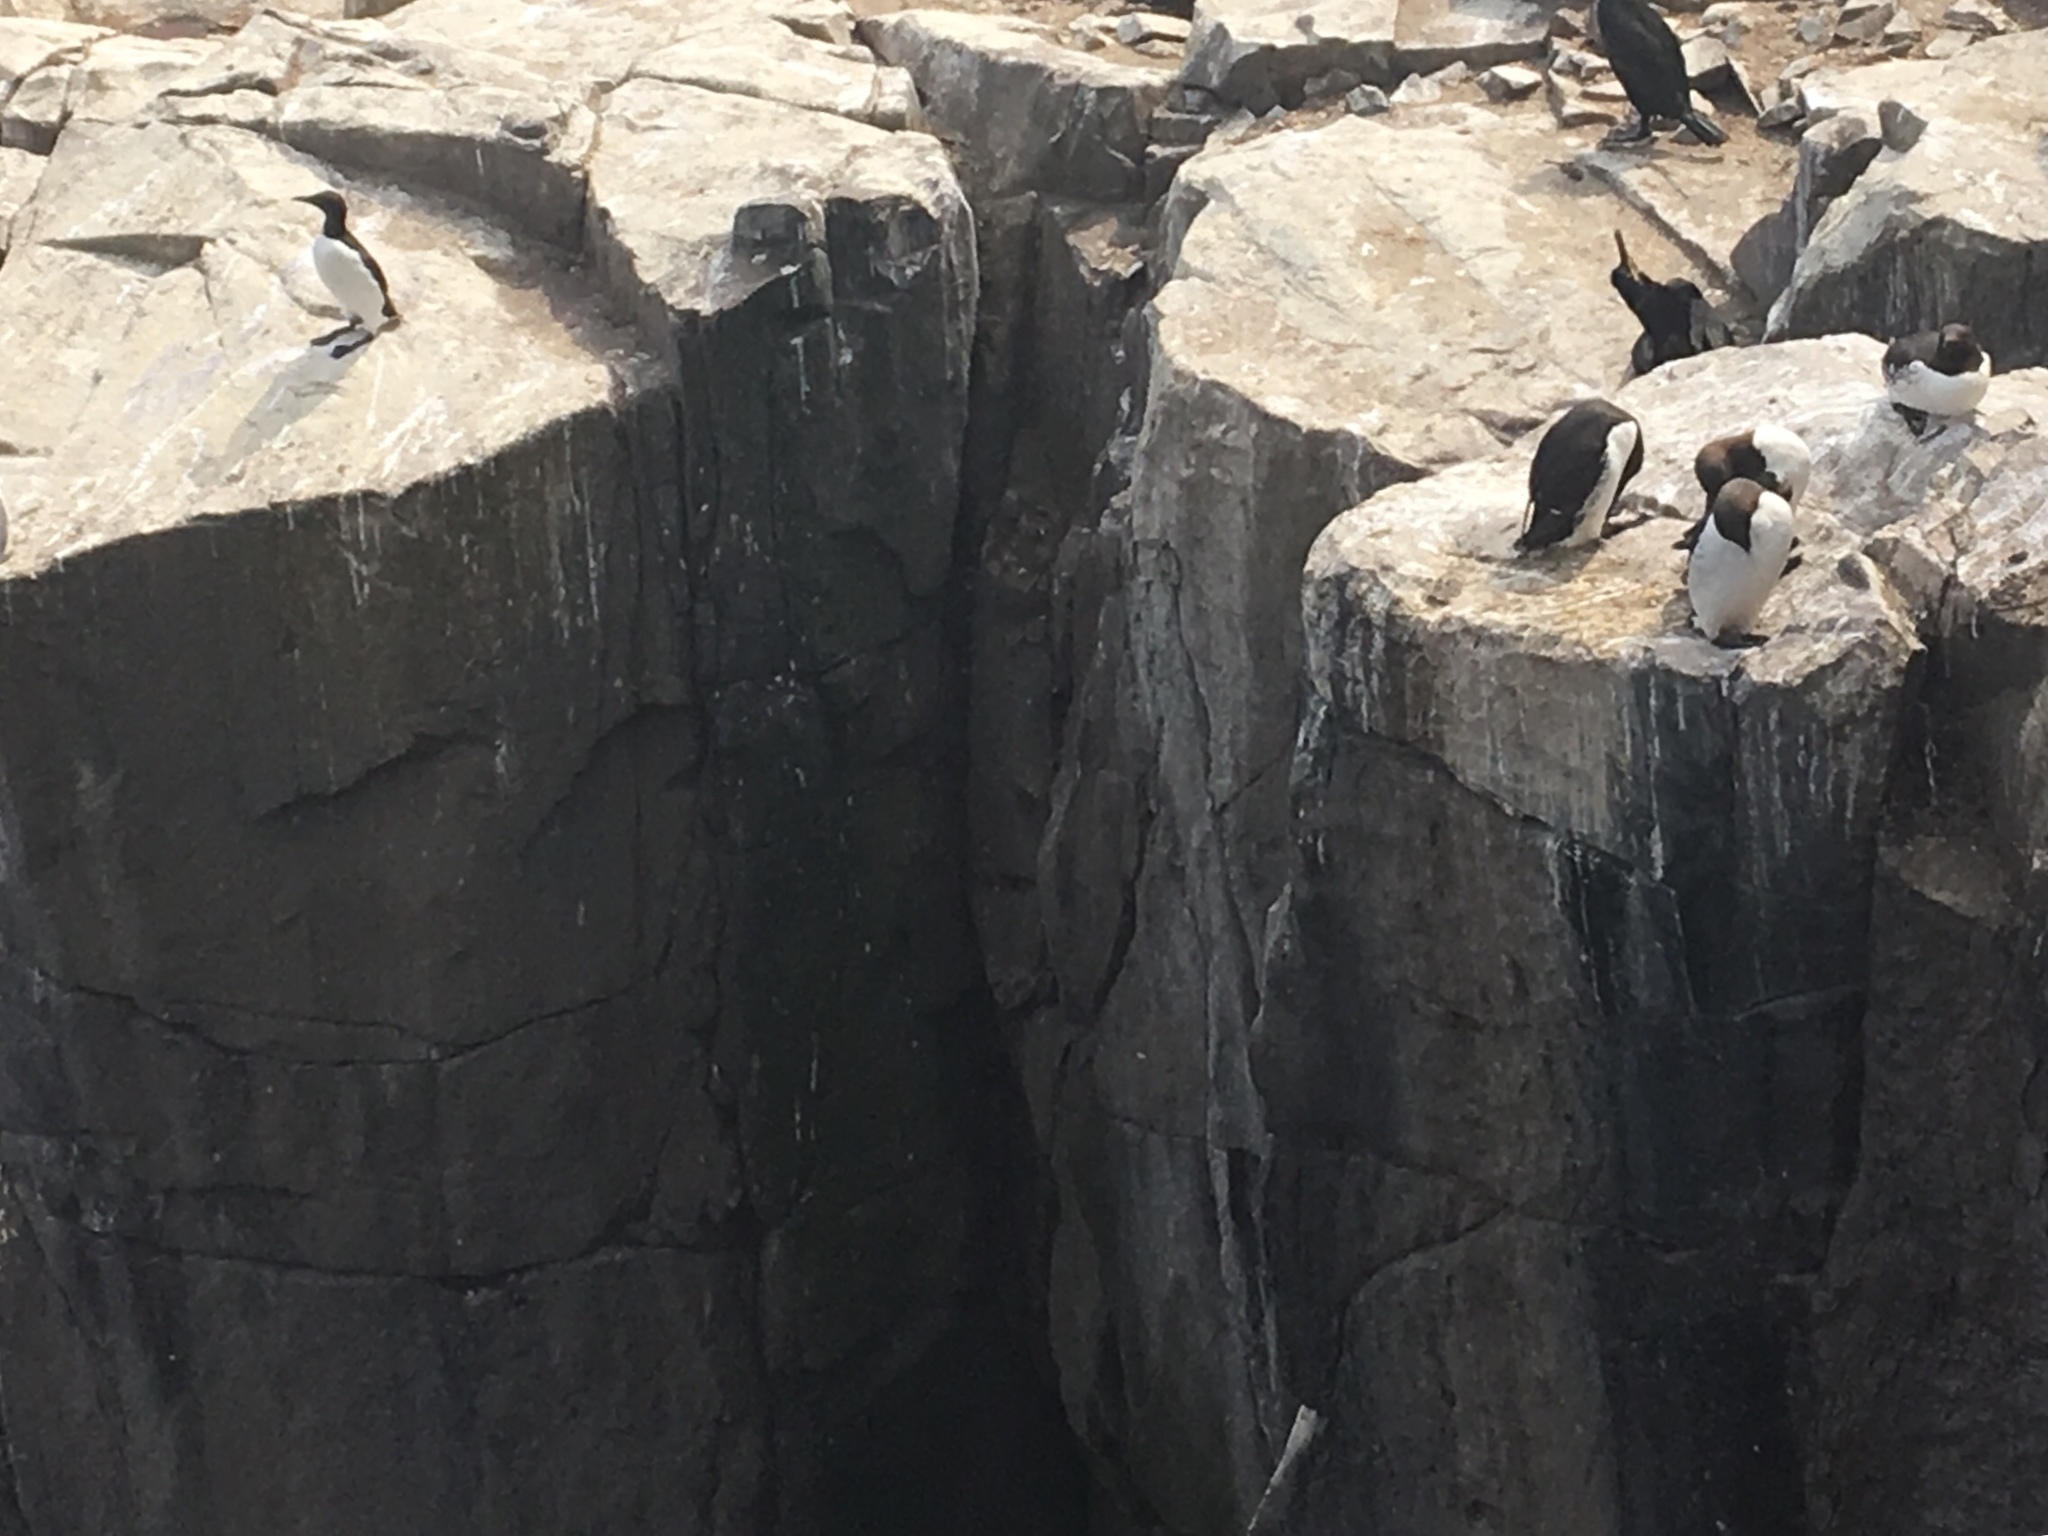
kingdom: Animalia
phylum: Chordata
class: Aves
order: Charadriiformes
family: Alcidae
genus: Uria
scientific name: Uria aalge
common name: Common murre
